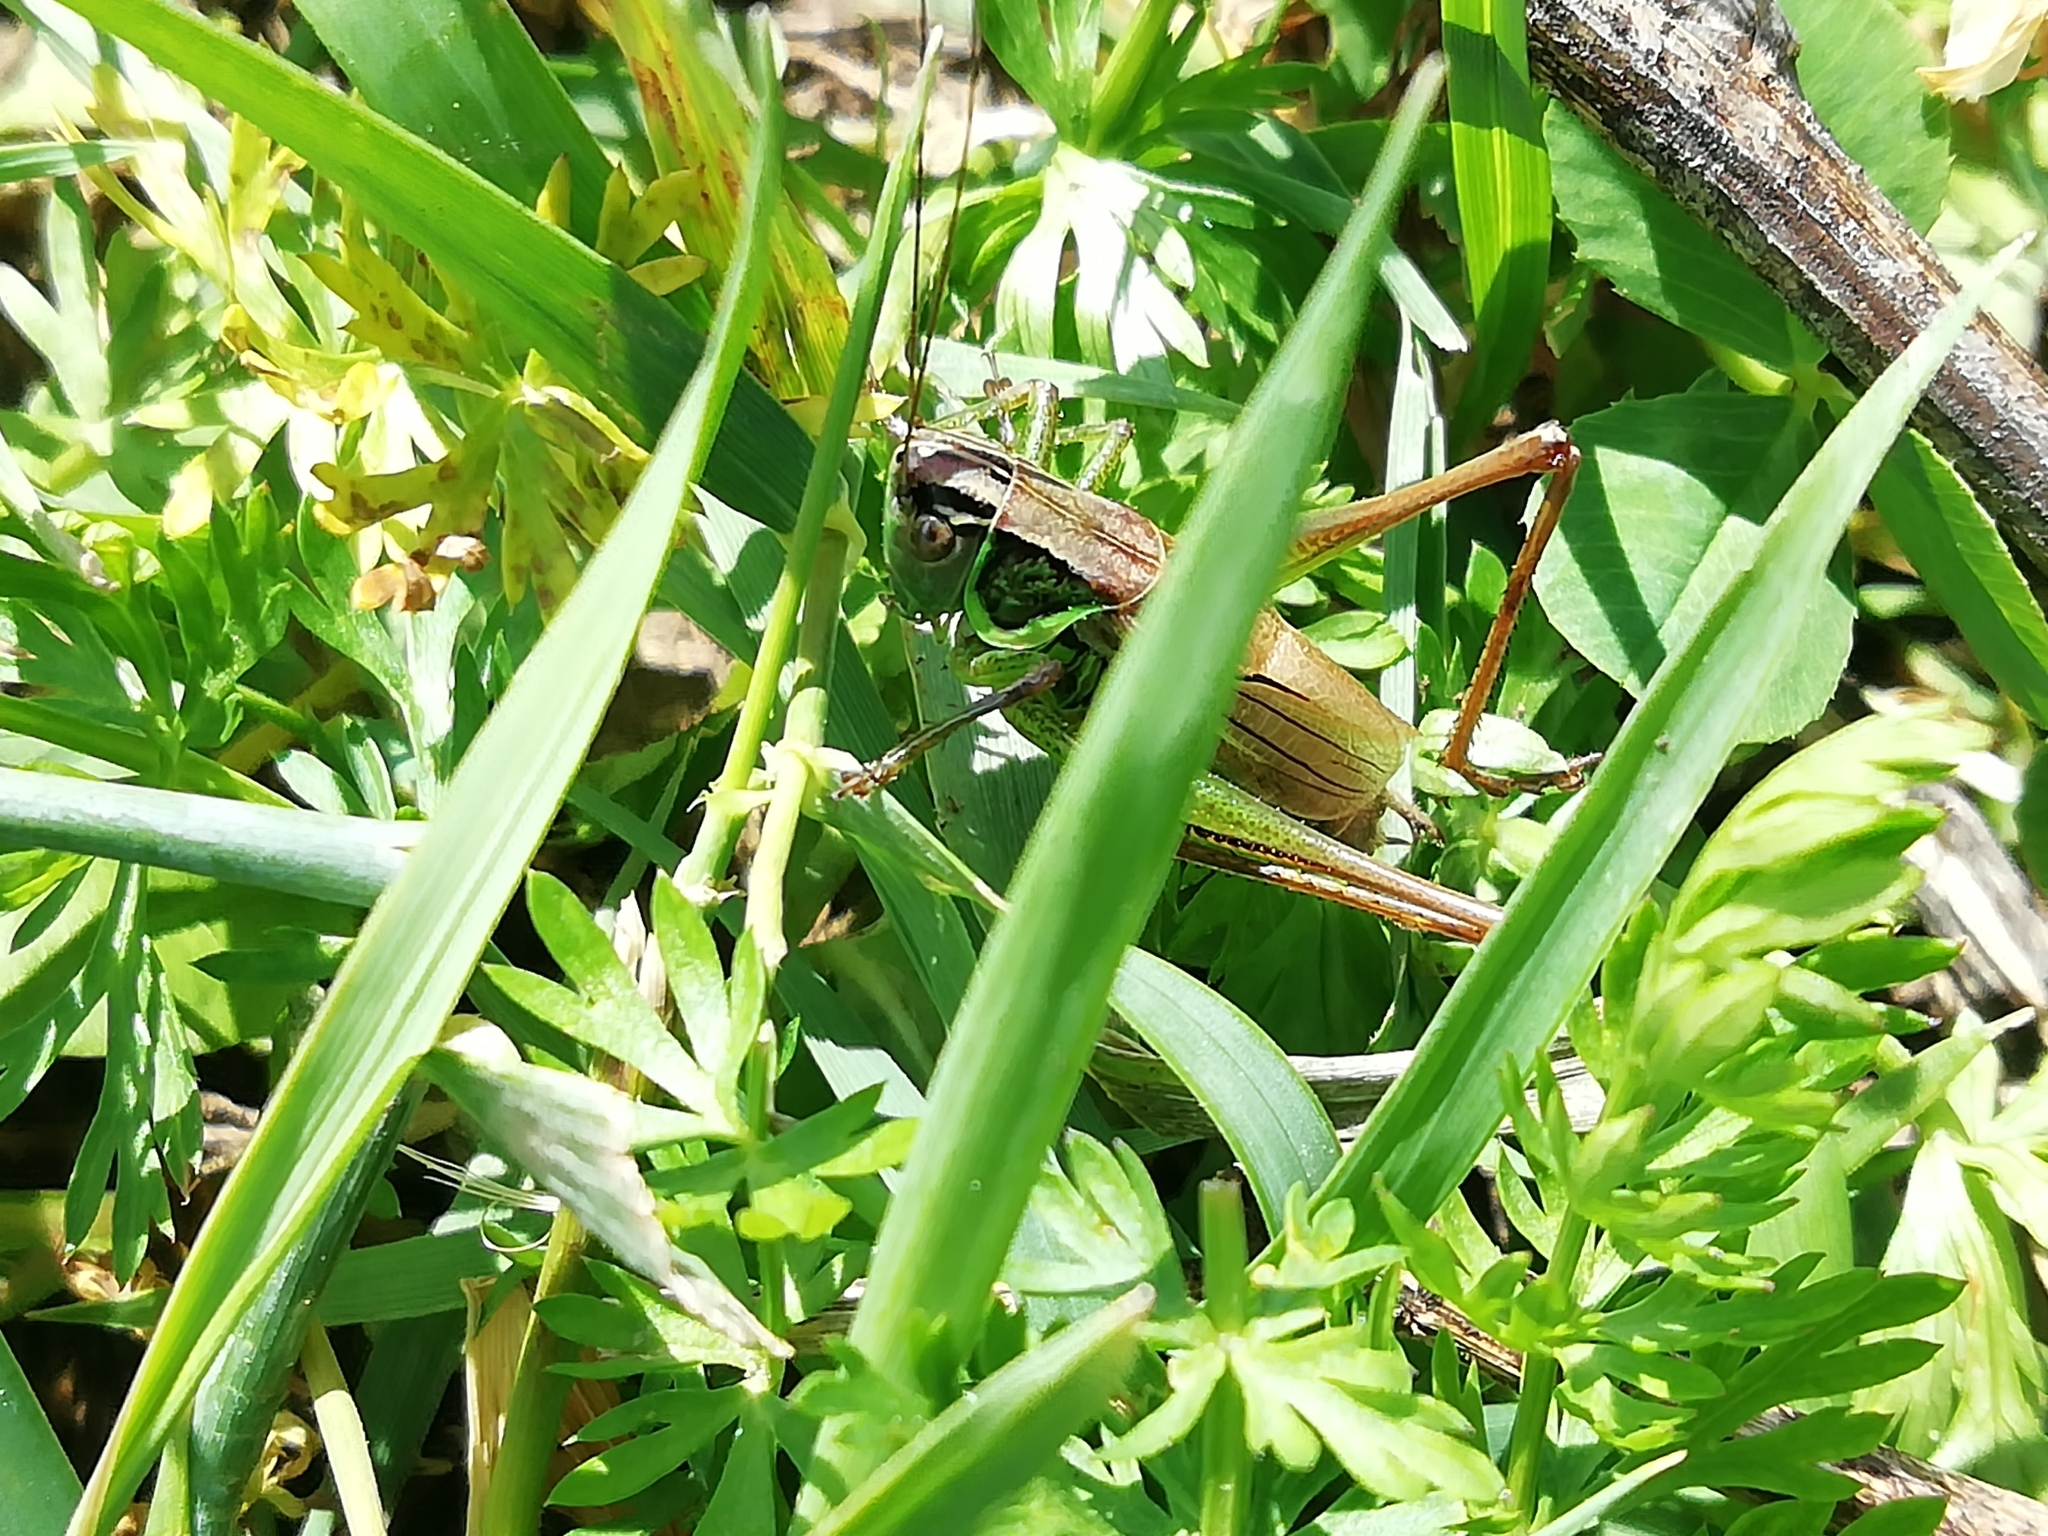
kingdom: Animalia
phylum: Arthropoda
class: Insecta
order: Orthoptera
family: Tettigoniidae
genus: Roeseliana
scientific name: Roeseliana roeselii
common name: Roesel's bush cricket
